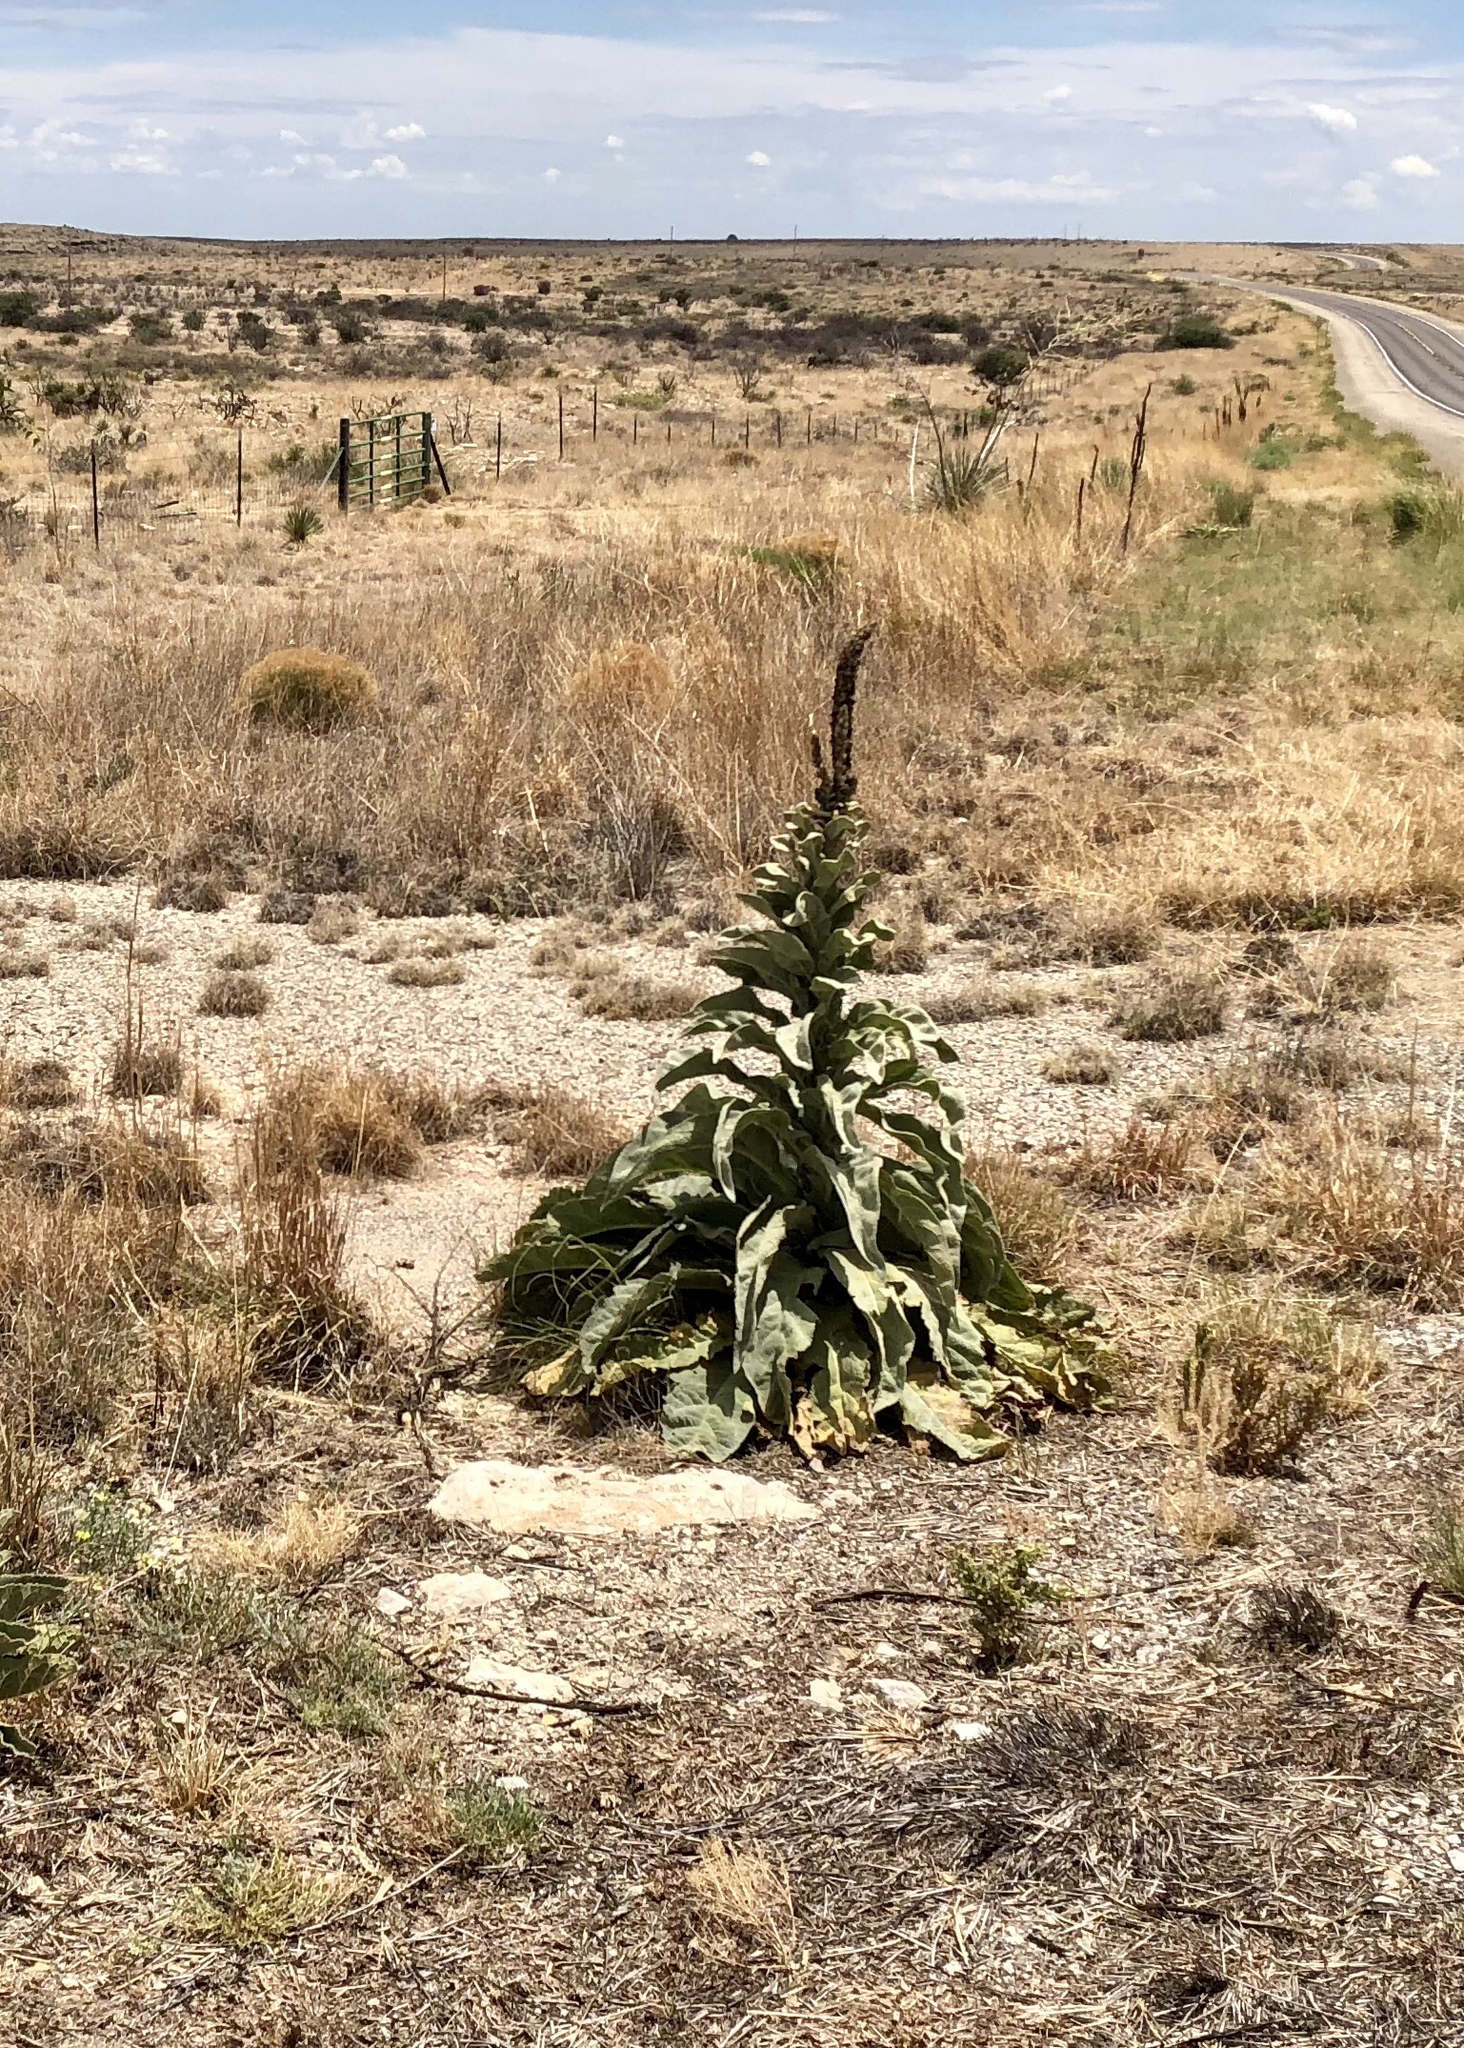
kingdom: Plantae
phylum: Tracheophyta
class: Magnoliopsida
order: Lamiales
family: Scrophulariaceae
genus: Verbascum
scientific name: Verbascum thapsus
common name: Common mullein
